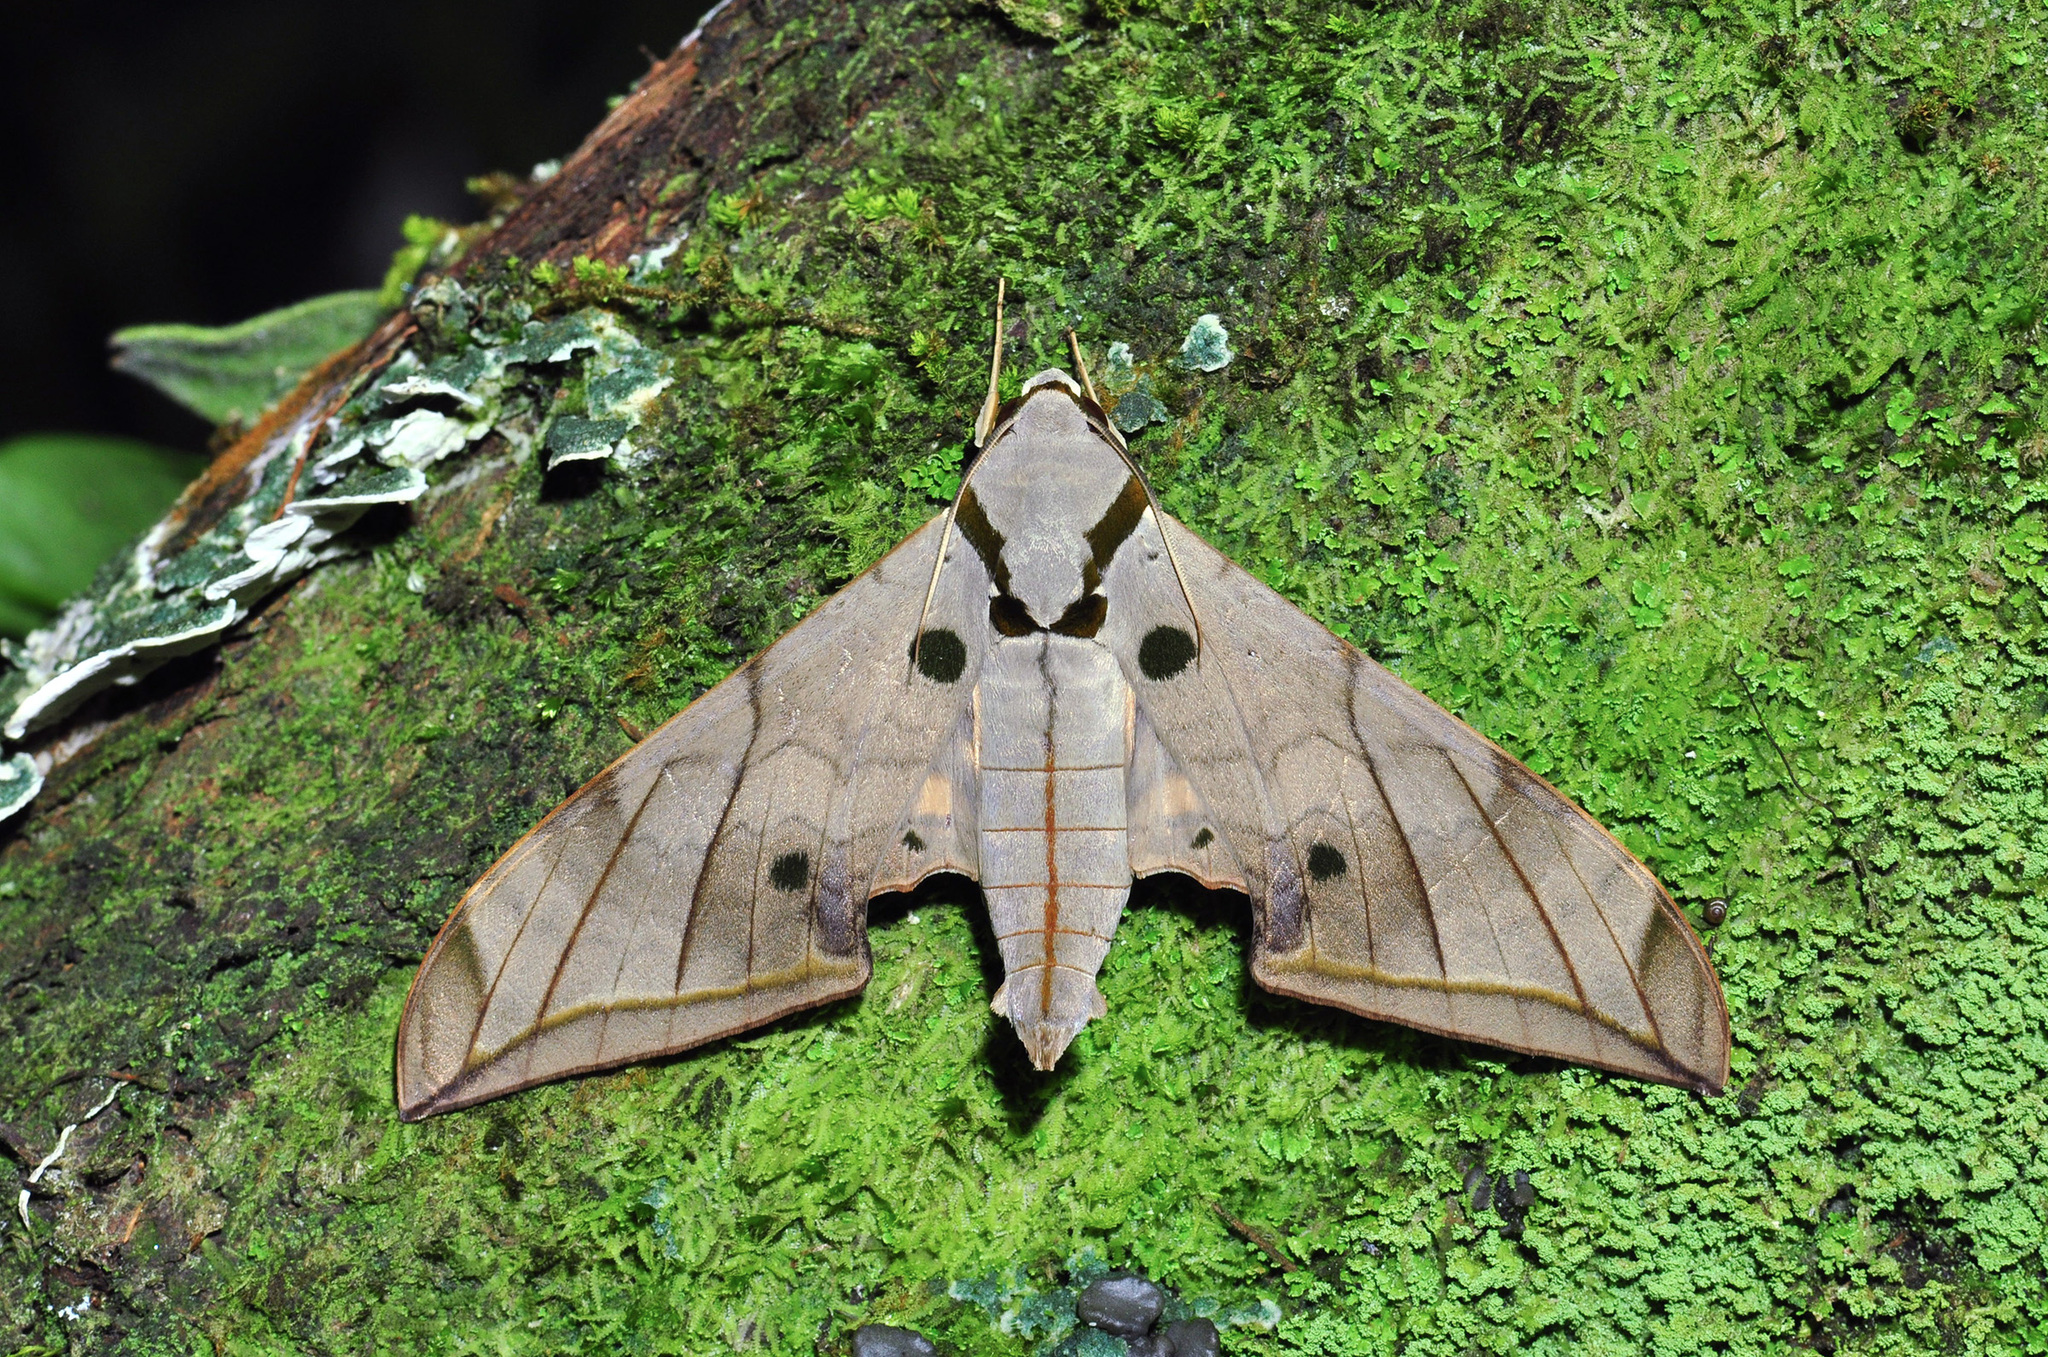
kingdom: Animalia
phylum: Arthropoda
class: Insecta
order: Lepidoptera
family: Sphingidae
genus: Ambulyx
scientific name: Ambulyx substrigilis
